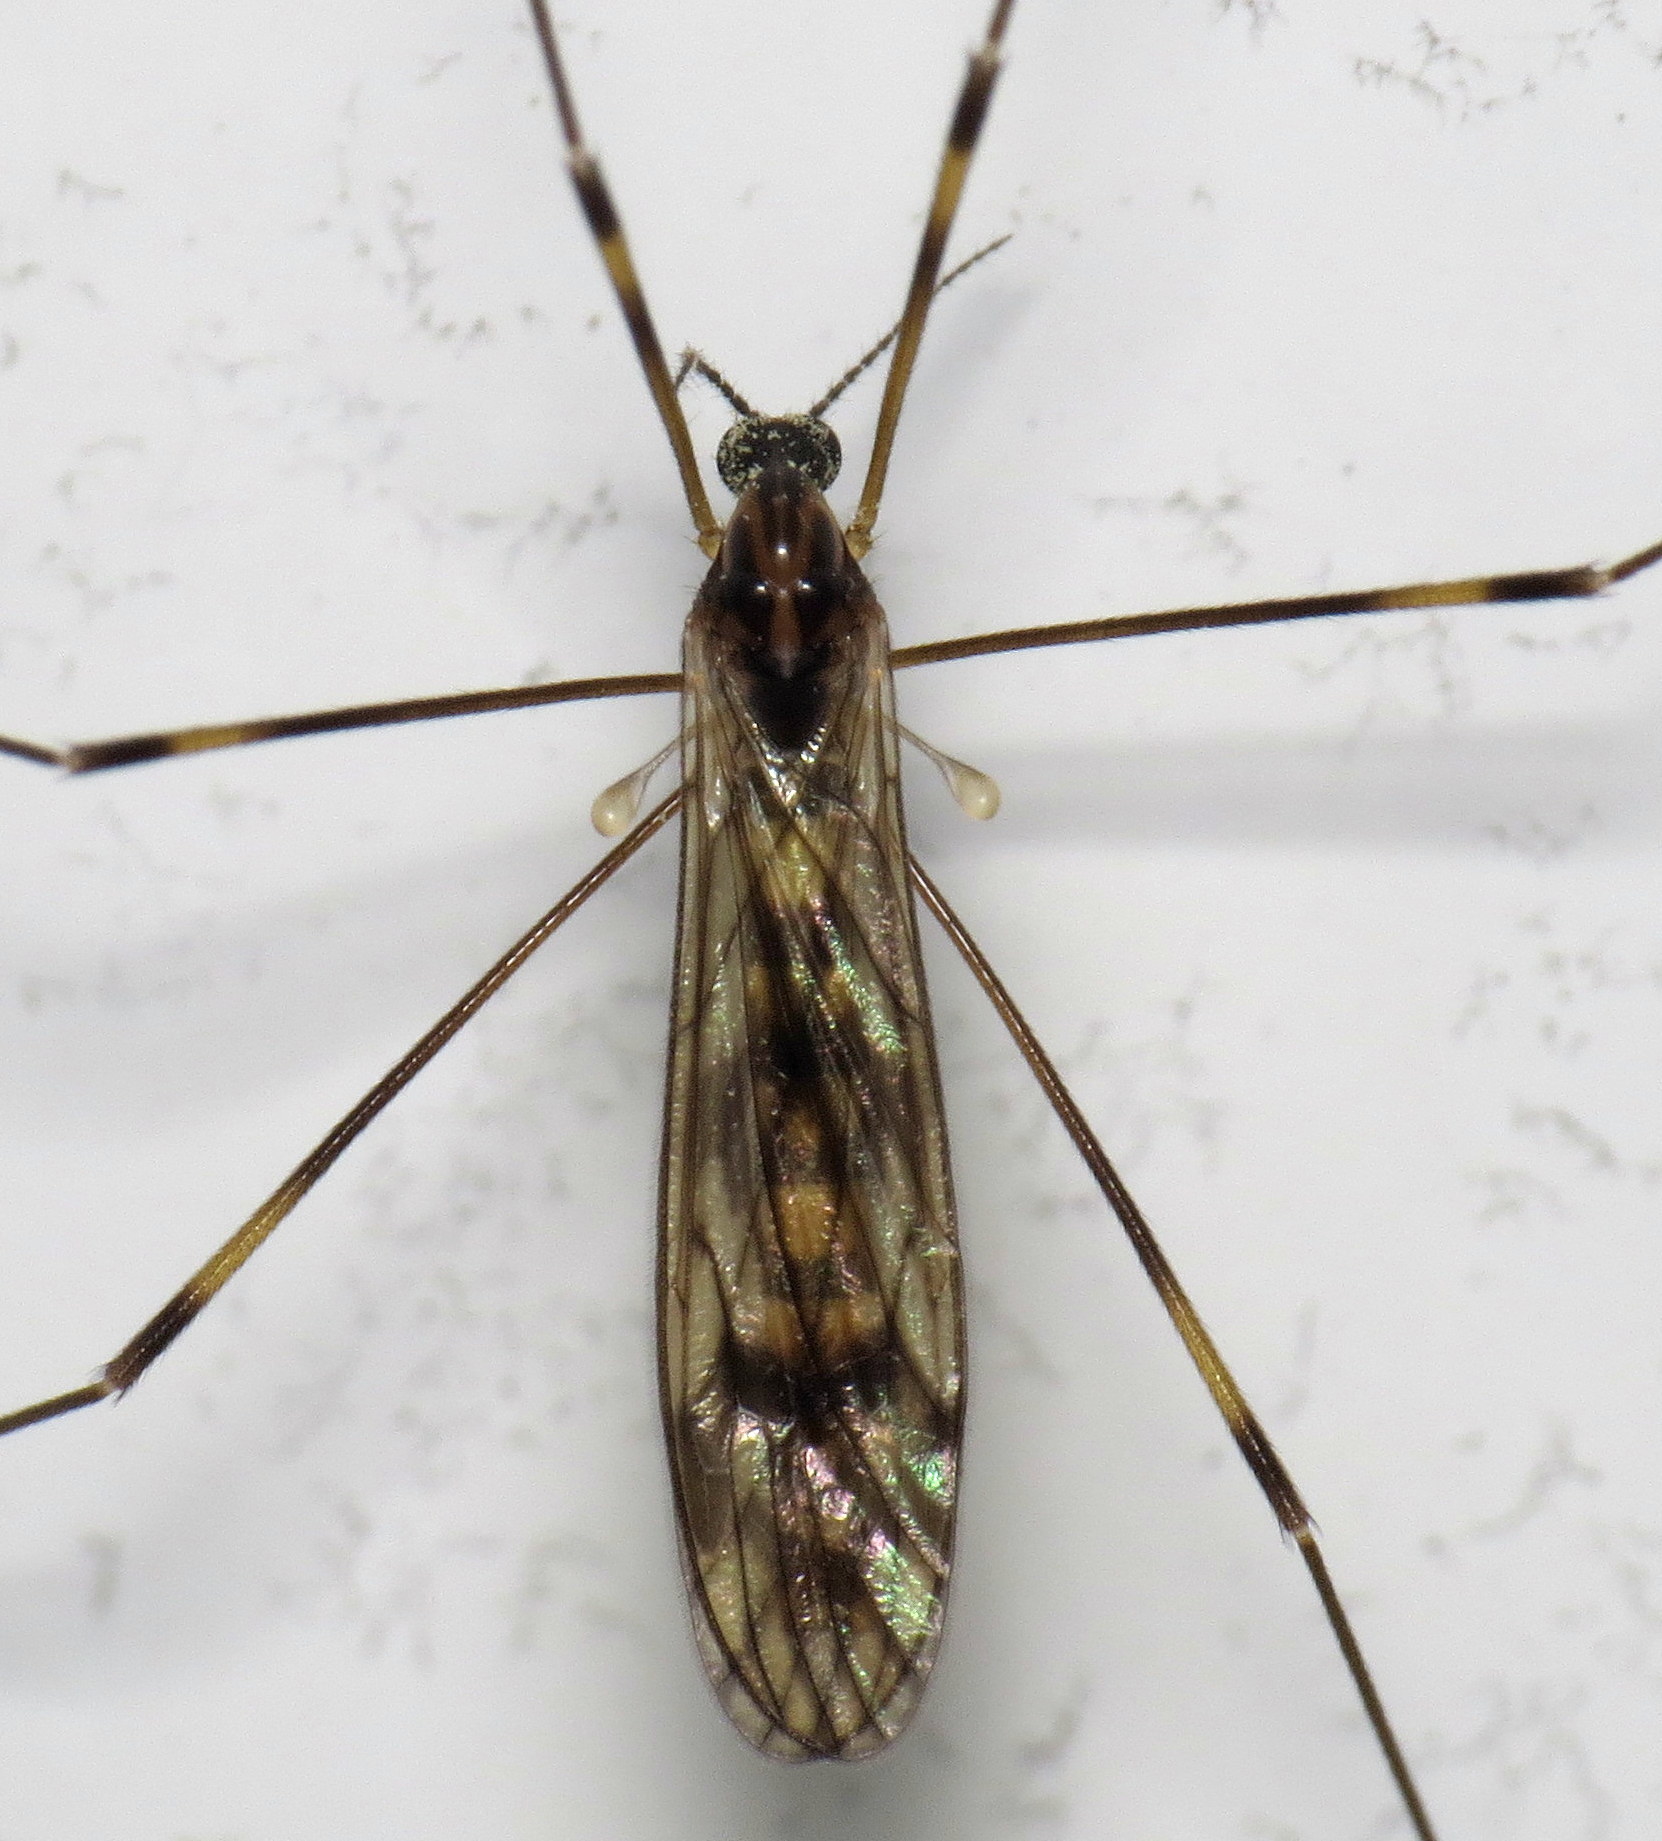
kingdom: Animalia
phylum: Arthropoda
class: Insecta
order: Diptera
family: Limoniidae
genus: Limonia
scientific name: Limonia indigena
